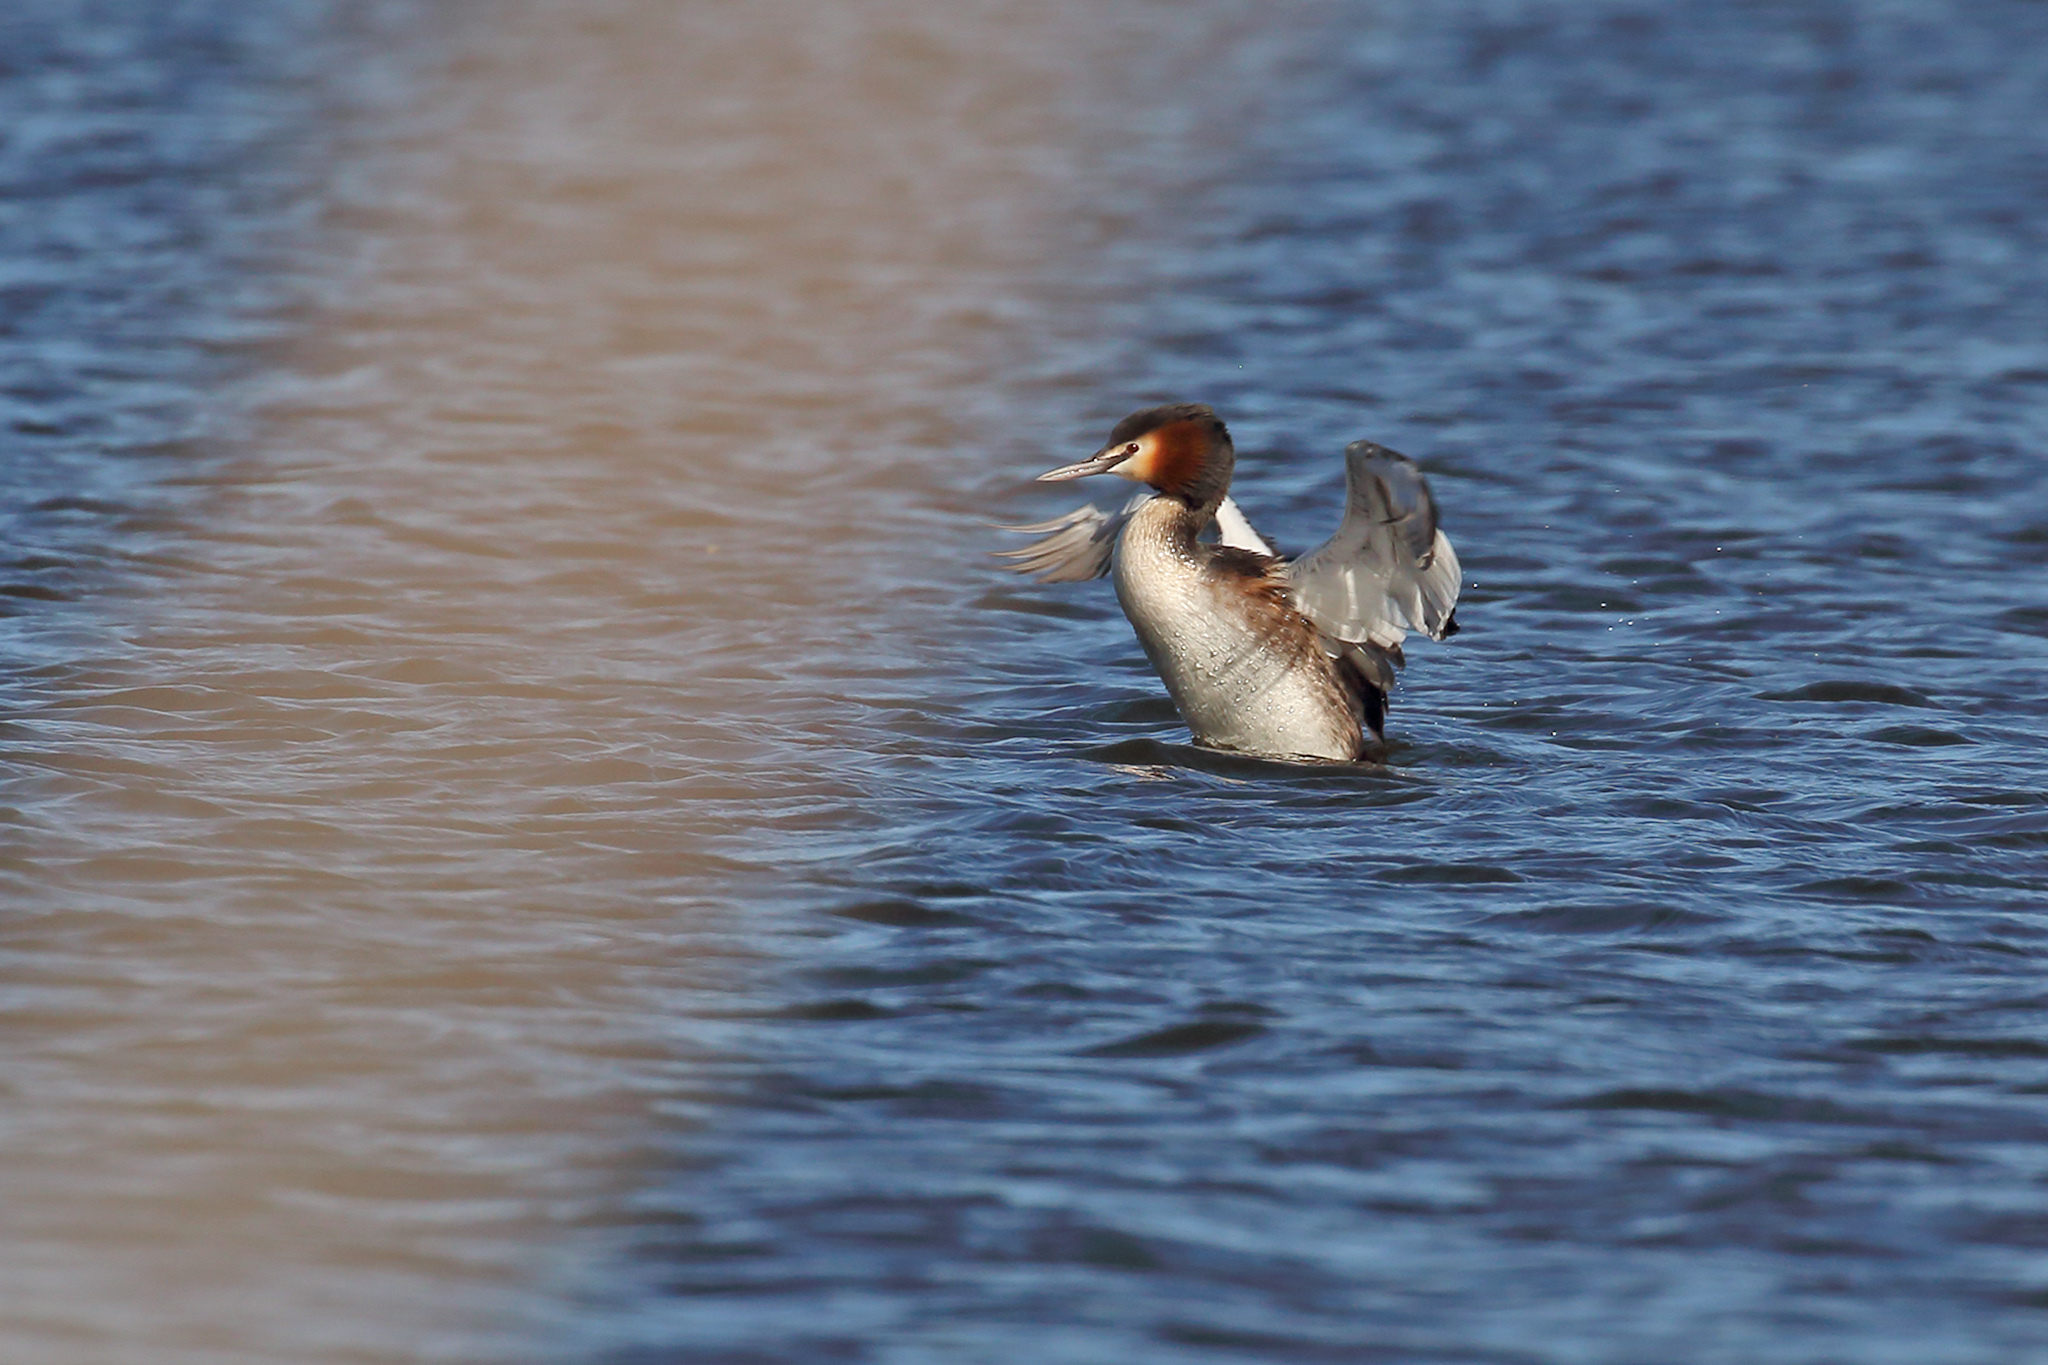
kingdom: Animalia
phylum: Chordata
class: Aves
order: Podicipediformes
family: Podicipedidae
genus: Podiceps
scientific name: Podiceps cristatus
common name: Great crested grebe
